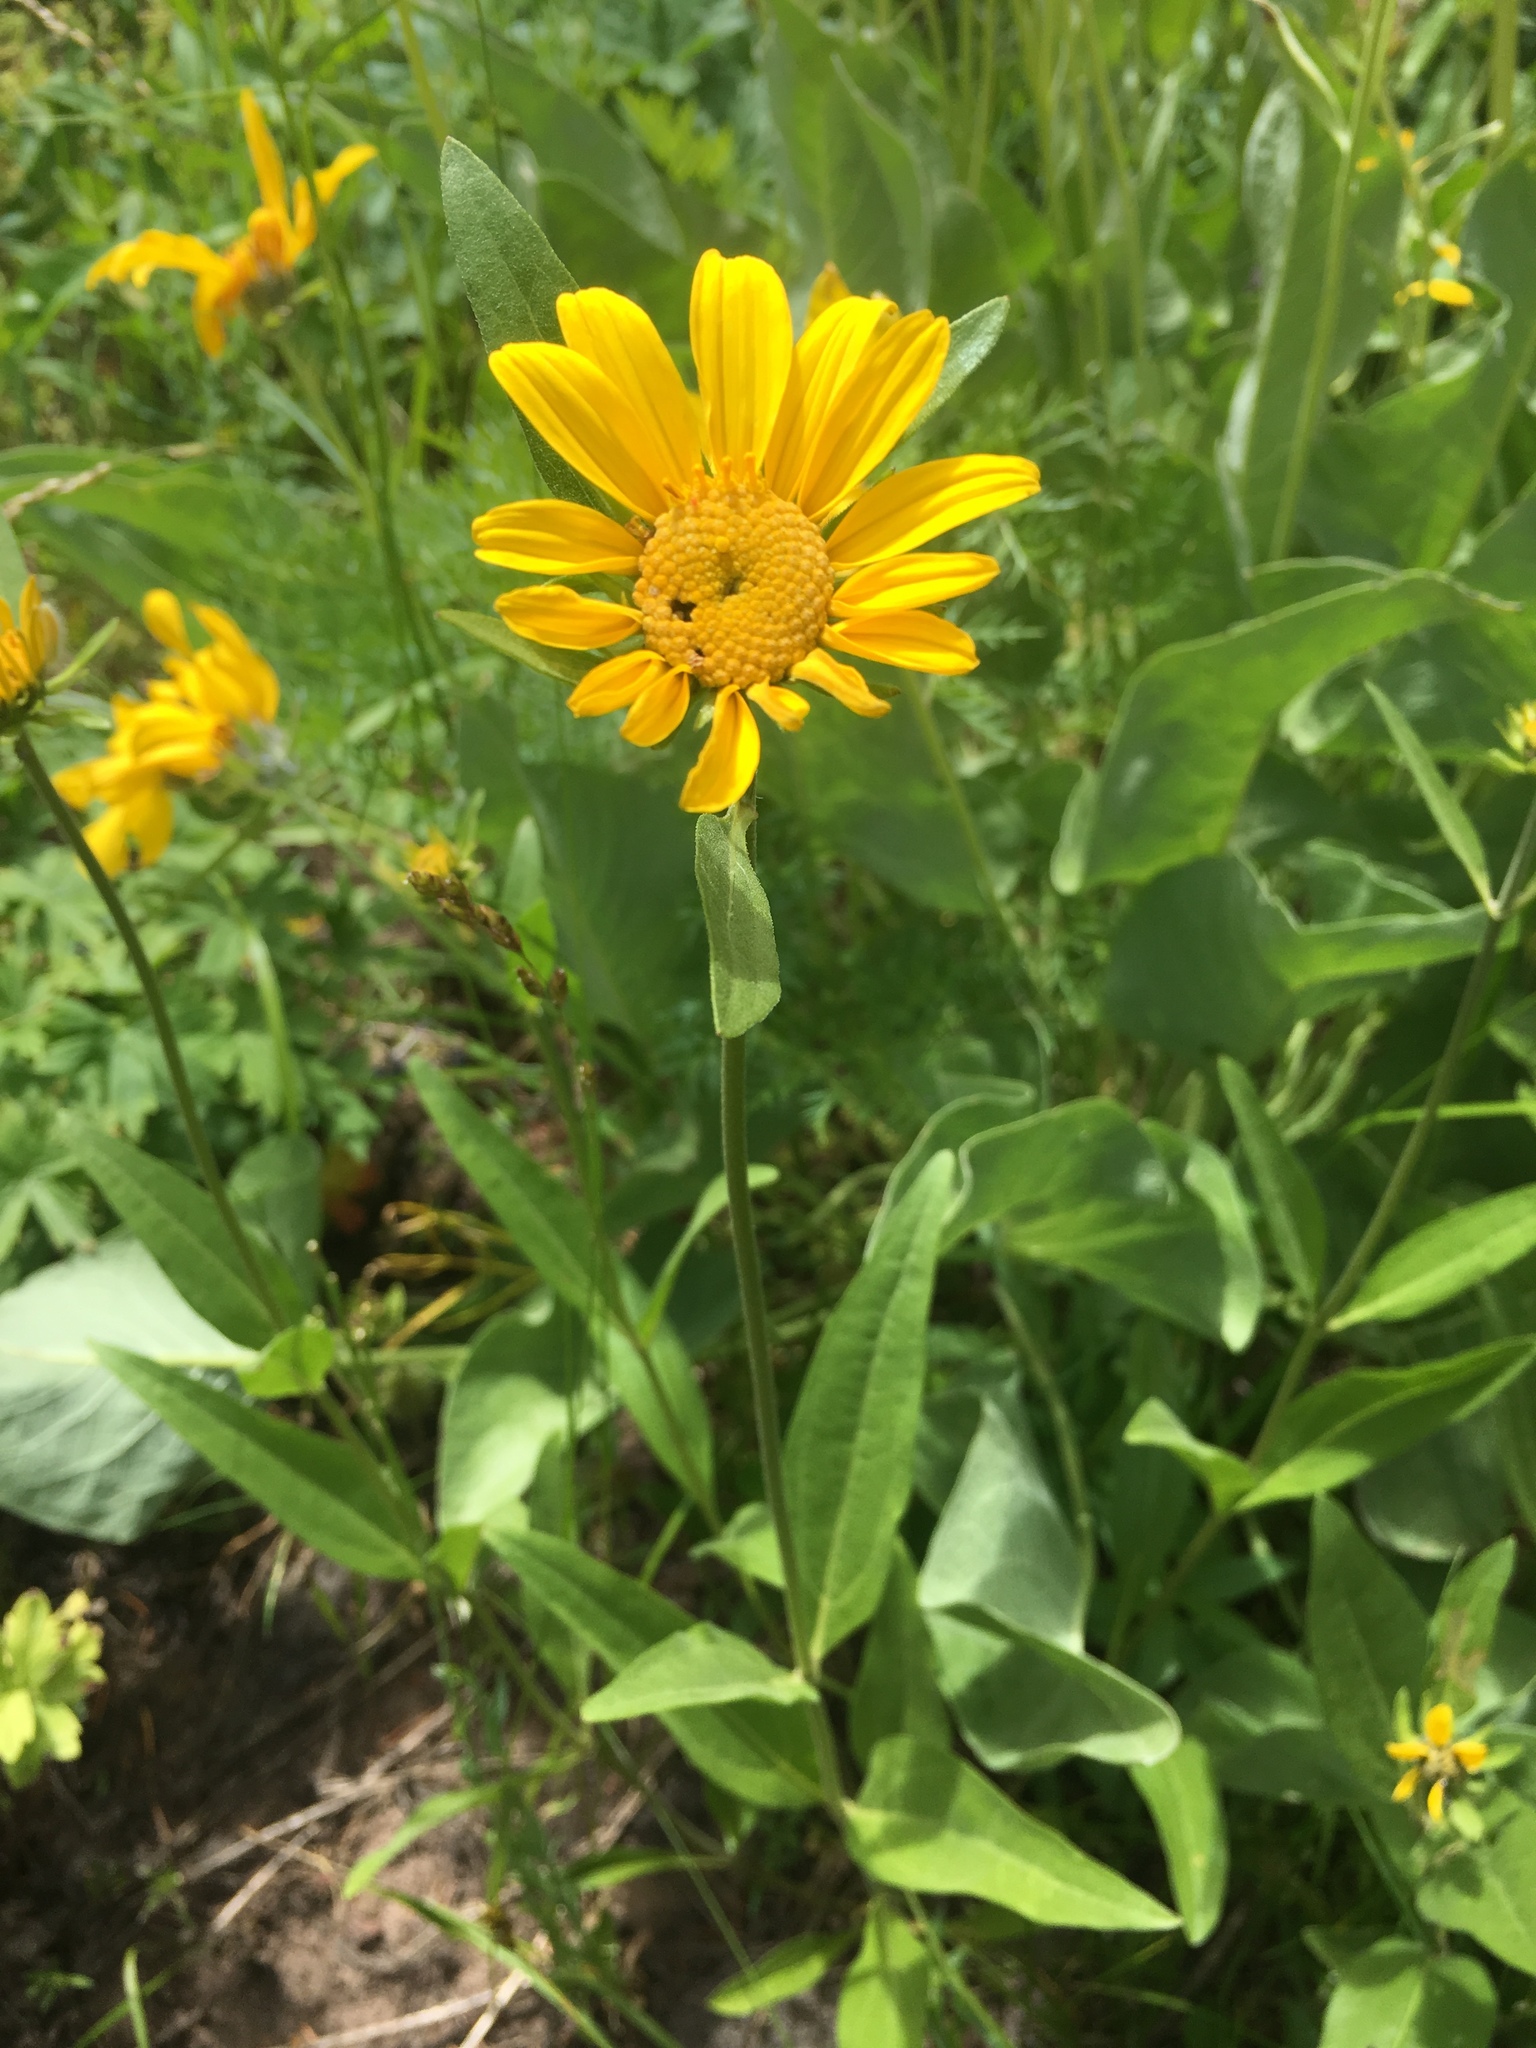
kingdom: Plantae
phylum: Tracheophyta
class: Magnoliopsida
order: Asterales
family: Asteraceae
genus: Helianthella
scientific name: Helianthella uniflora
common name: Rocky mountain dwarf sunflower
